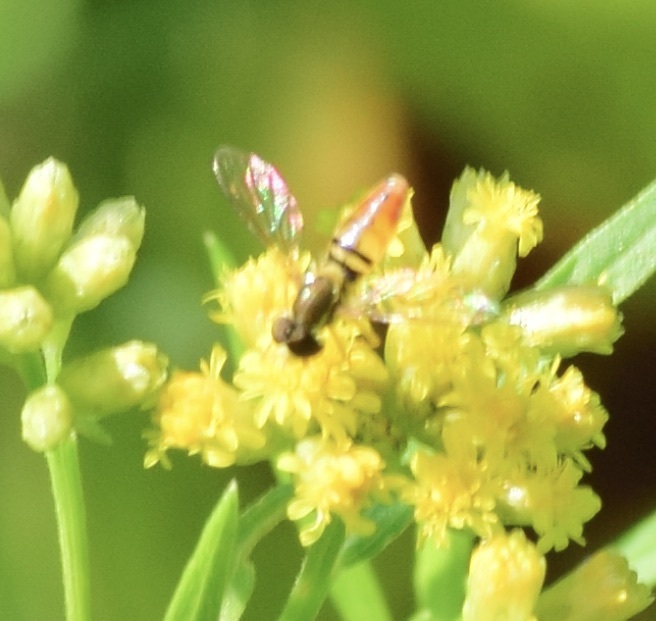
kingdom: Animalia
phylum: Arthropoda
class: Insecta
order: Diptera
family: Syrphidae
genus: Toxomerus
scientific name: Toxomerus marginatus
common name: Syrphid fly
